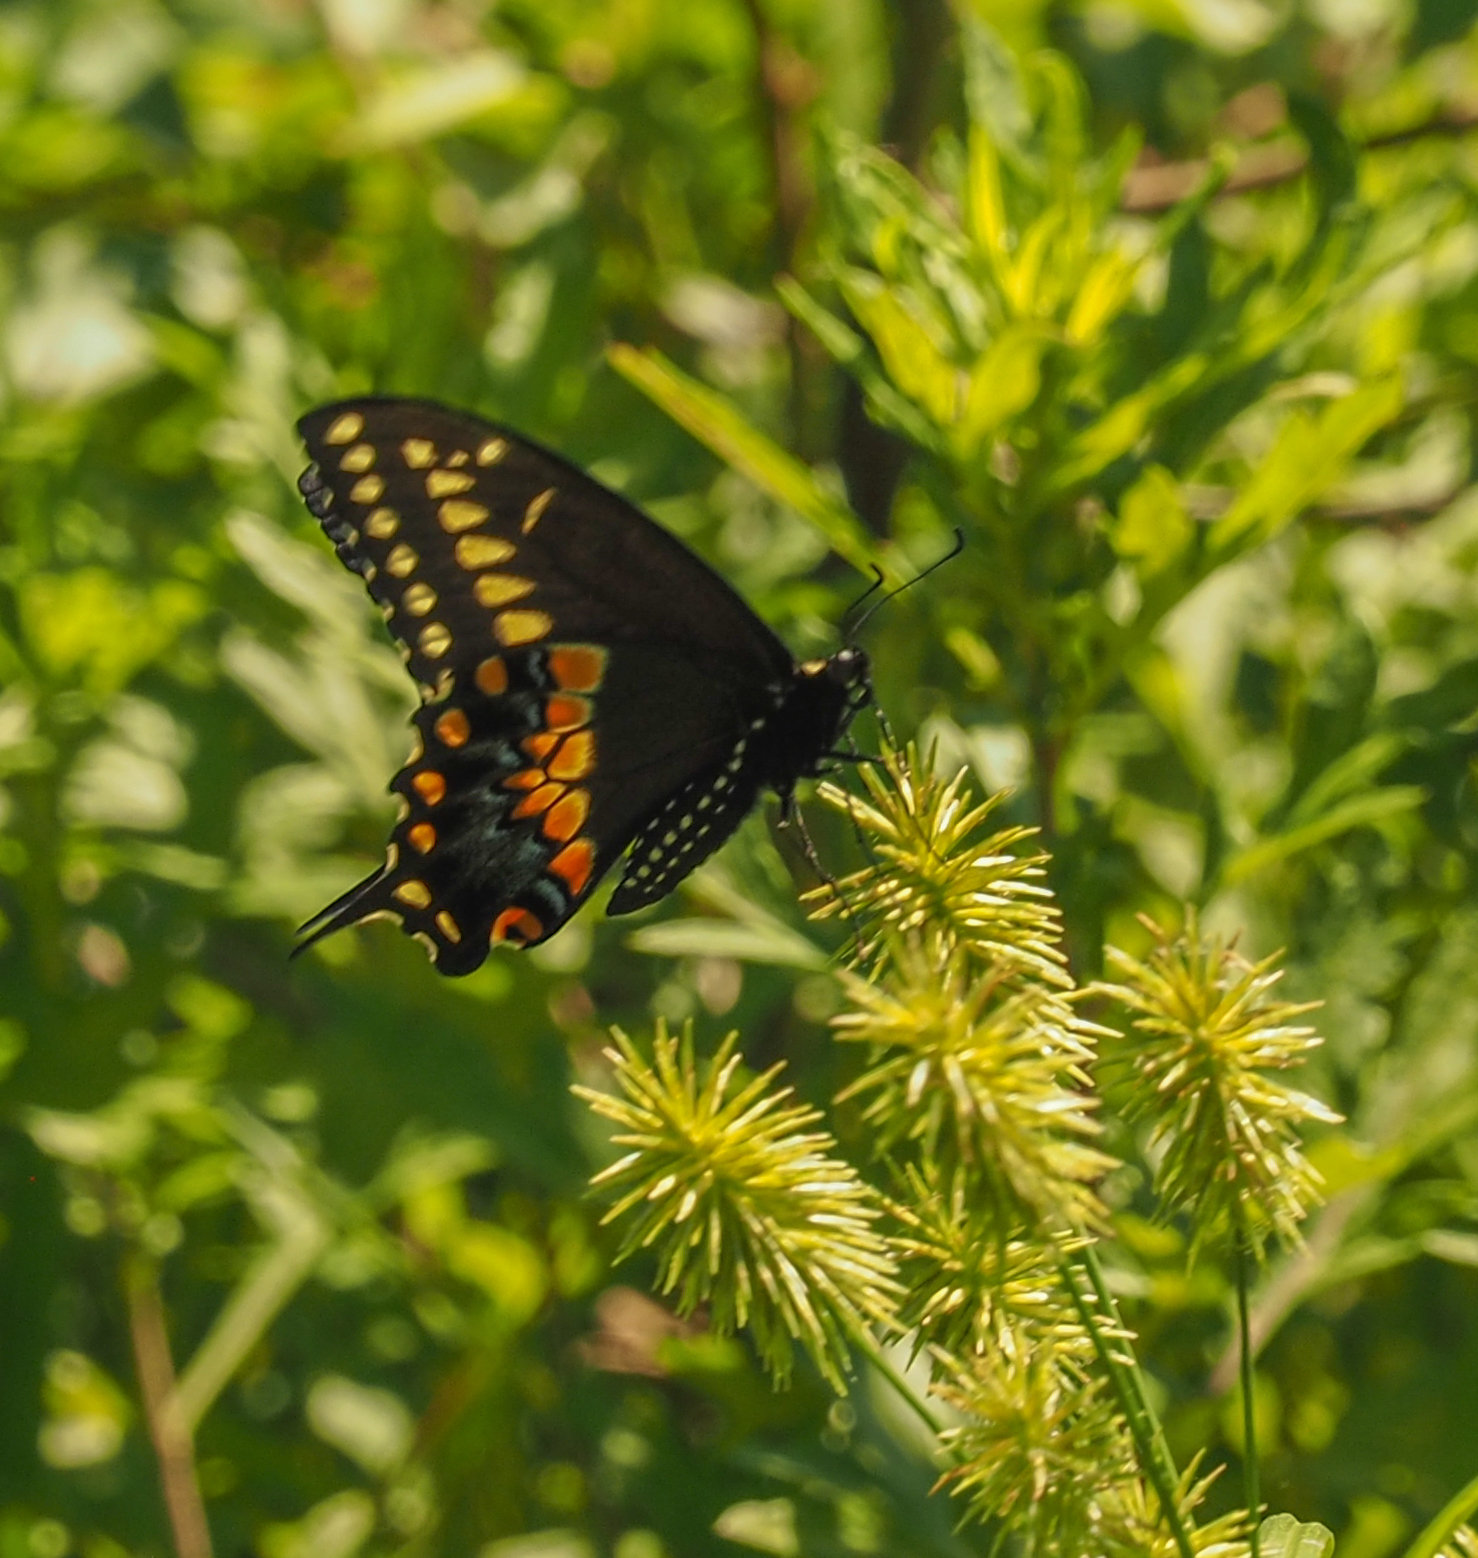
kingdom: Animalia
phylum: Arthropoda
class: Insecta
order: Lepidoptera
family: Papilionidae
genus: Papilio
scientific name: Papilio polyxenes
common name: Black swallowtail
